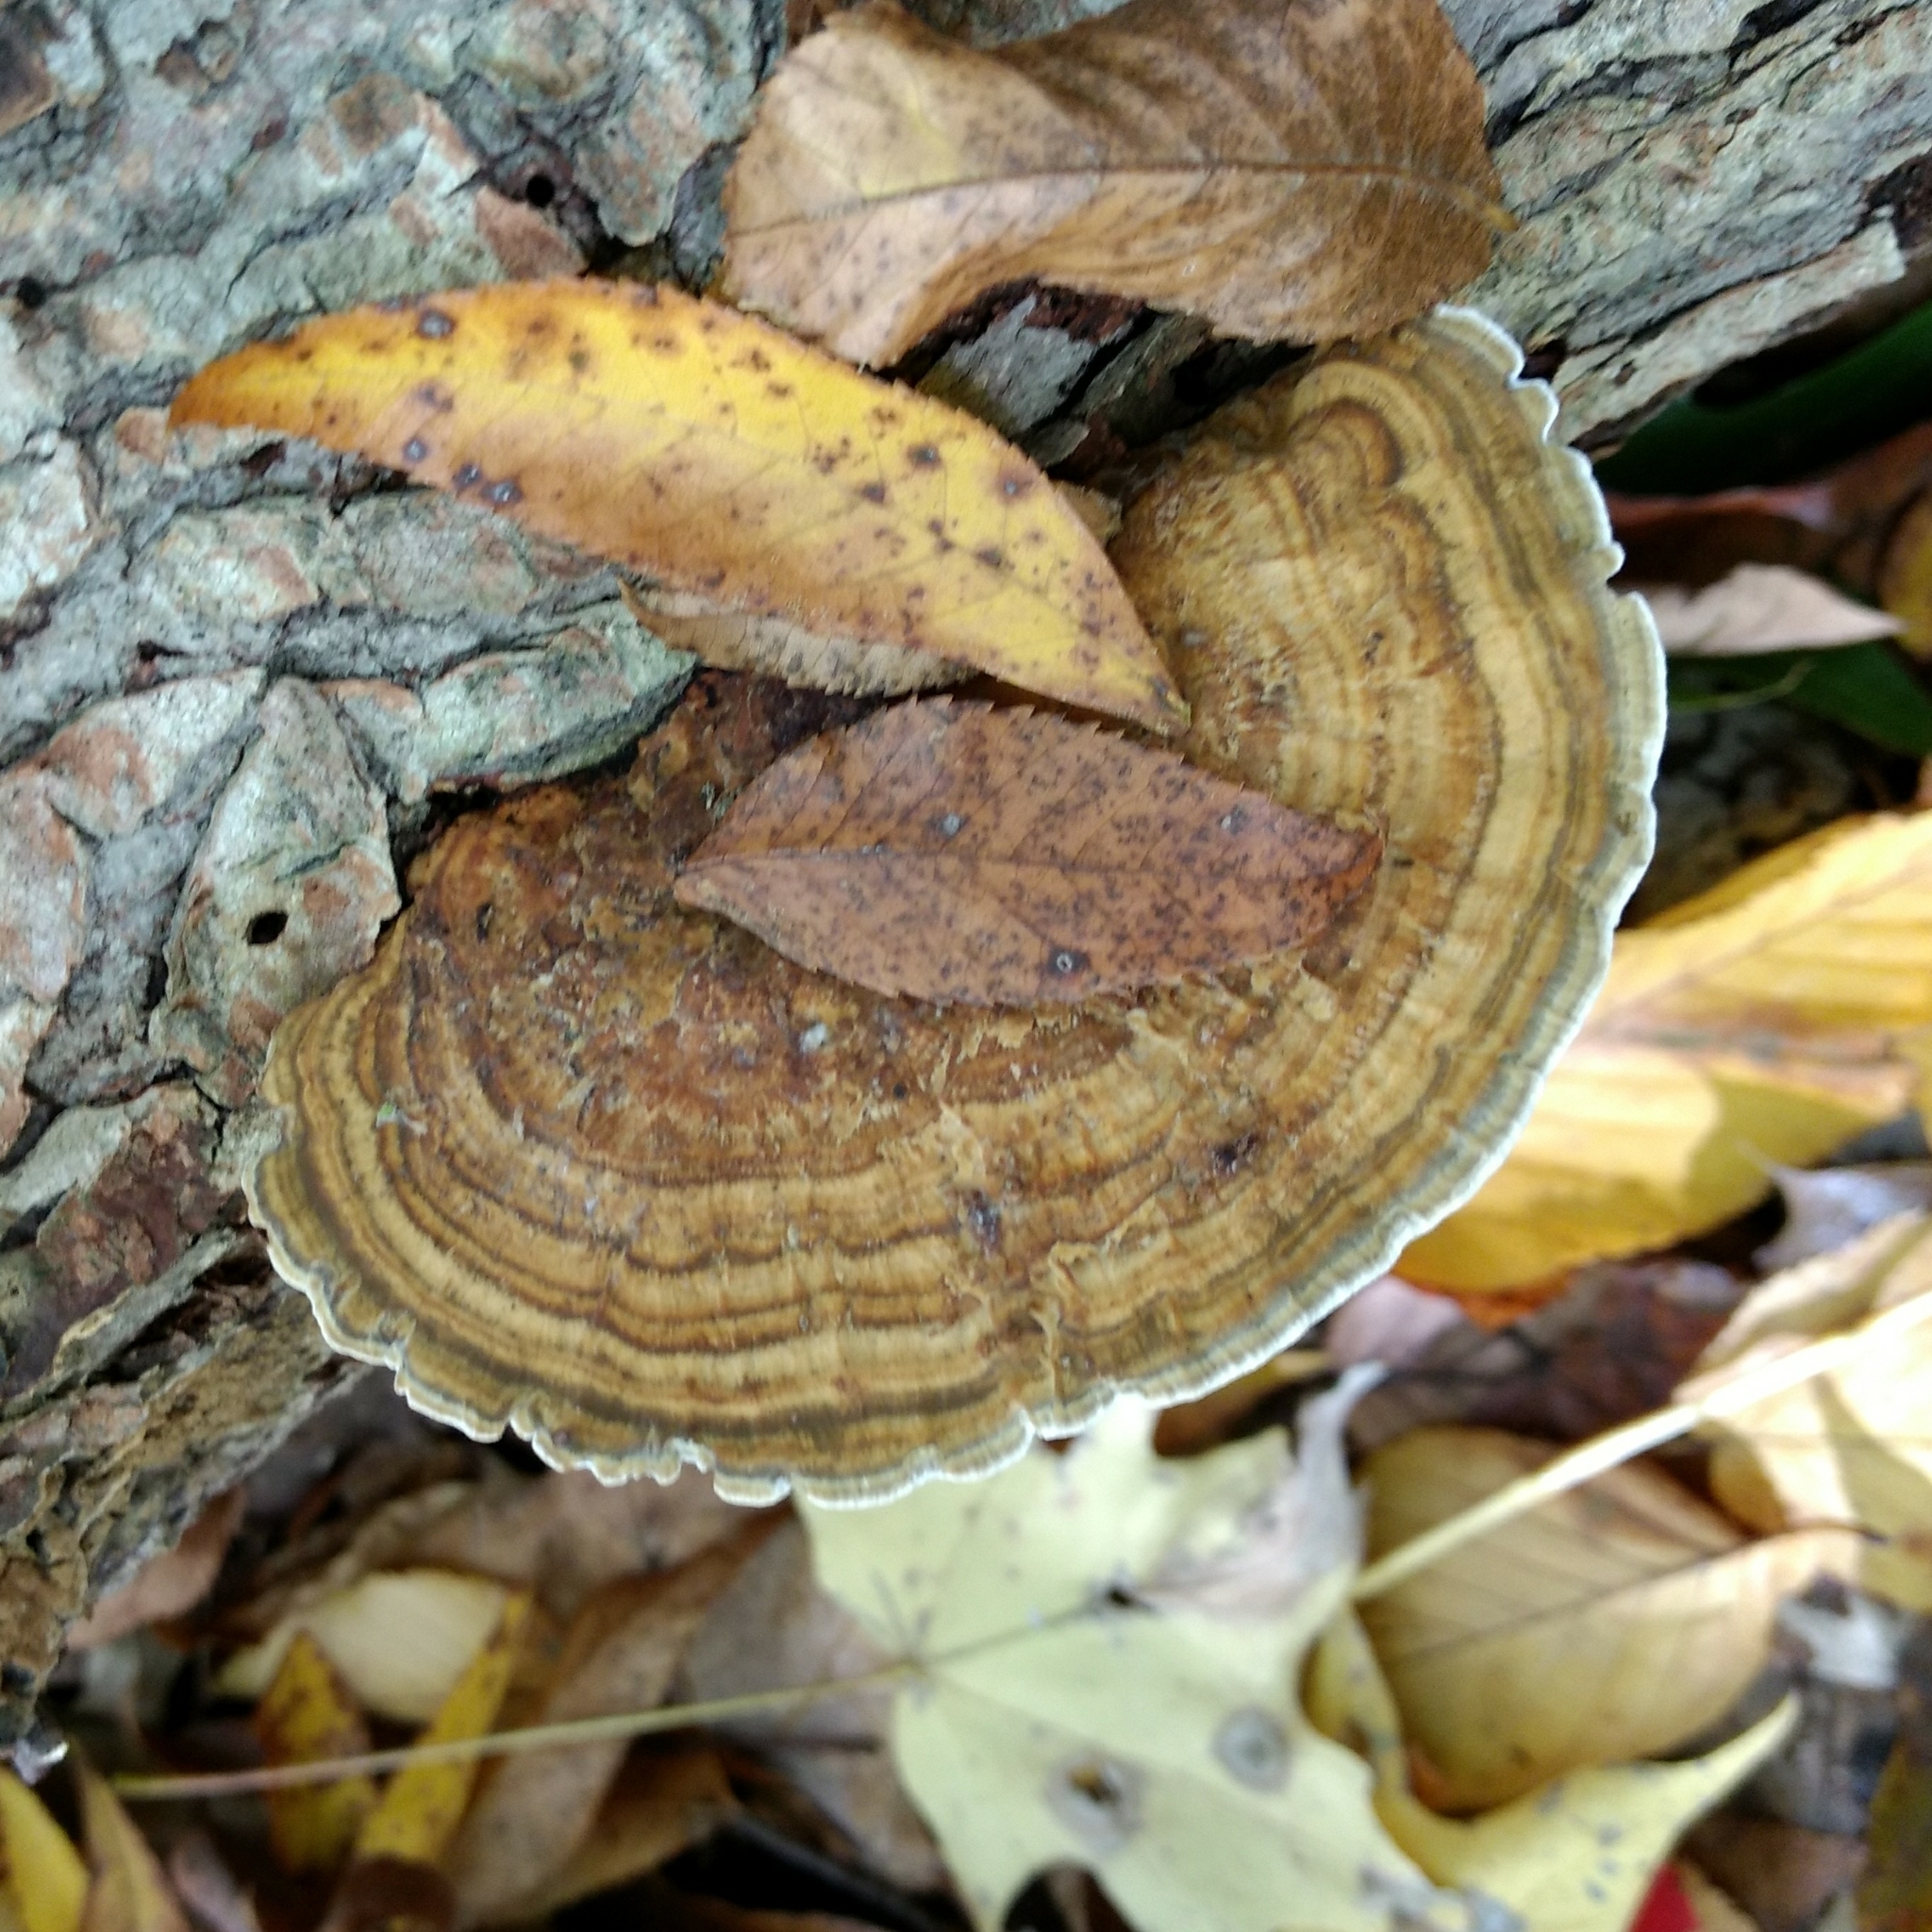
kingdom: Fungi
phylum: Basidiomycota
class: Agaricomycetes
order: Polyporales
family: Polyporaceae
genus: Daedaleopsis
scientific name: Daedaleopsis confragosa
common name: Blushing bracket
